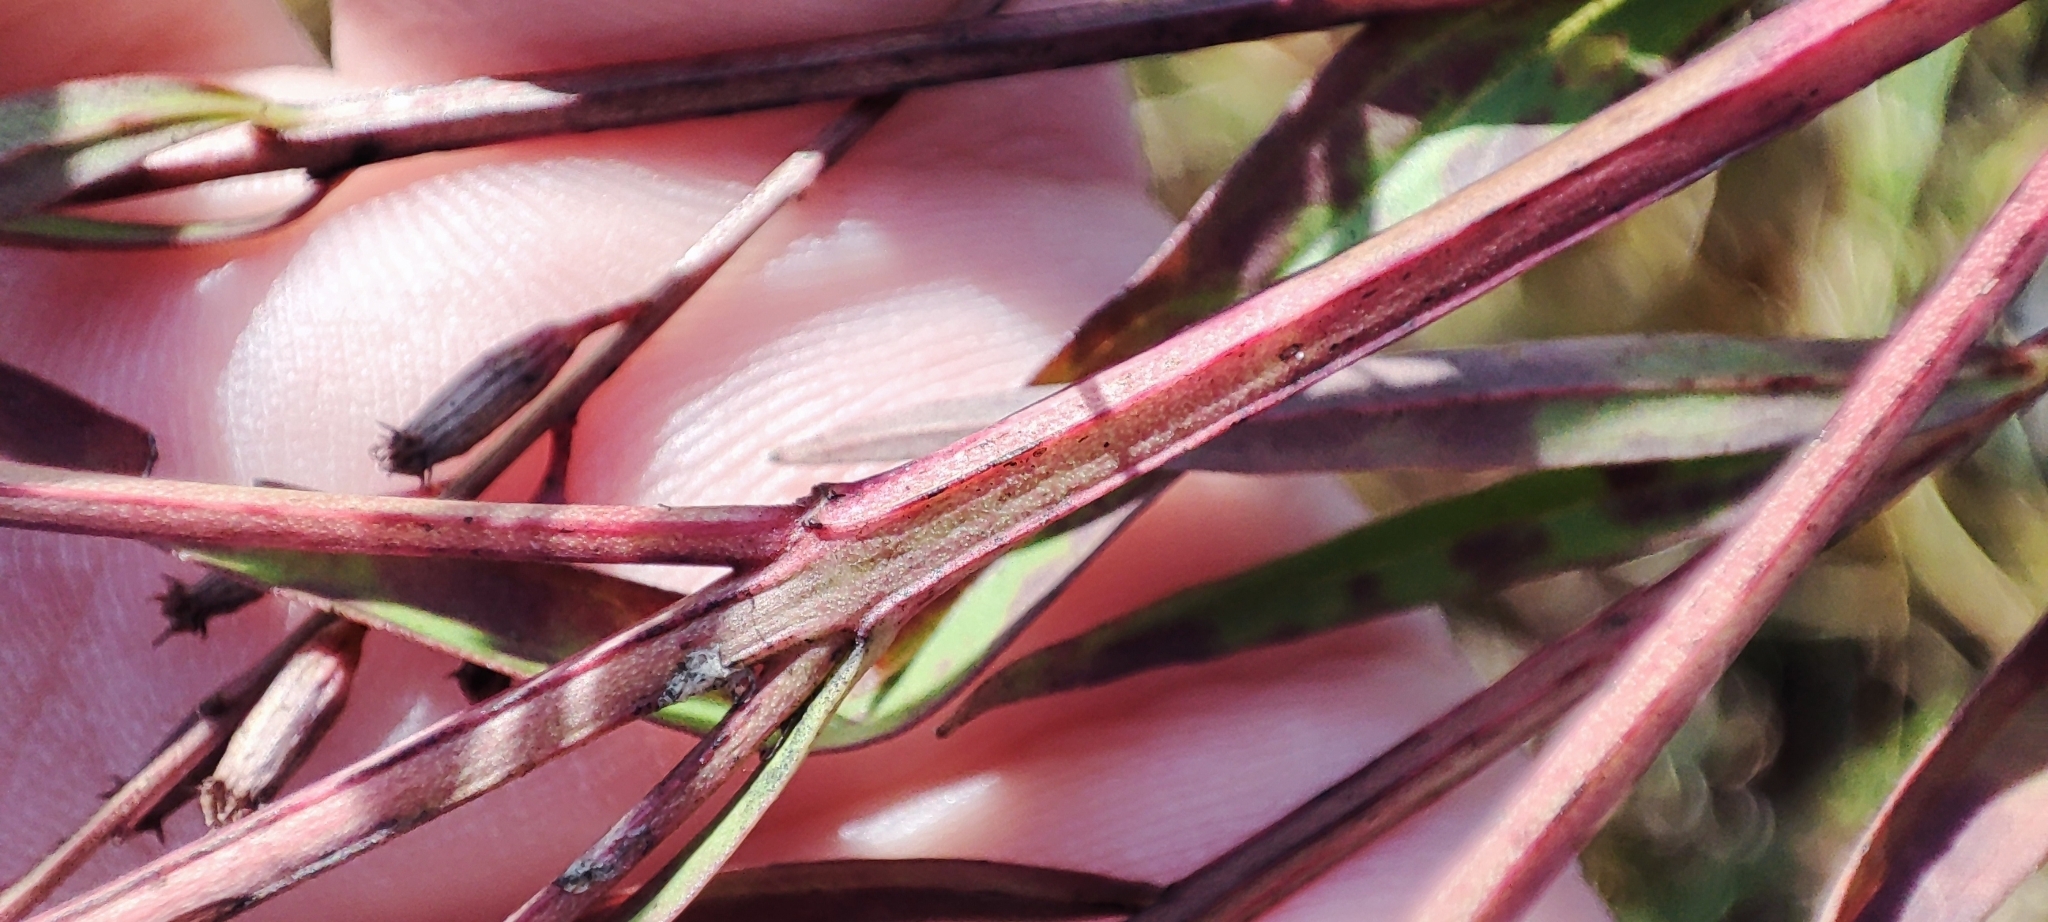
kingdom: Plantae
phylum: Tracheophyta
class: Magnoliopsida
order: Myrtales
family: Lythraceae
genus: Lythrum
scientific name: Lythrum virgatum
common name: European wand loosestrife
